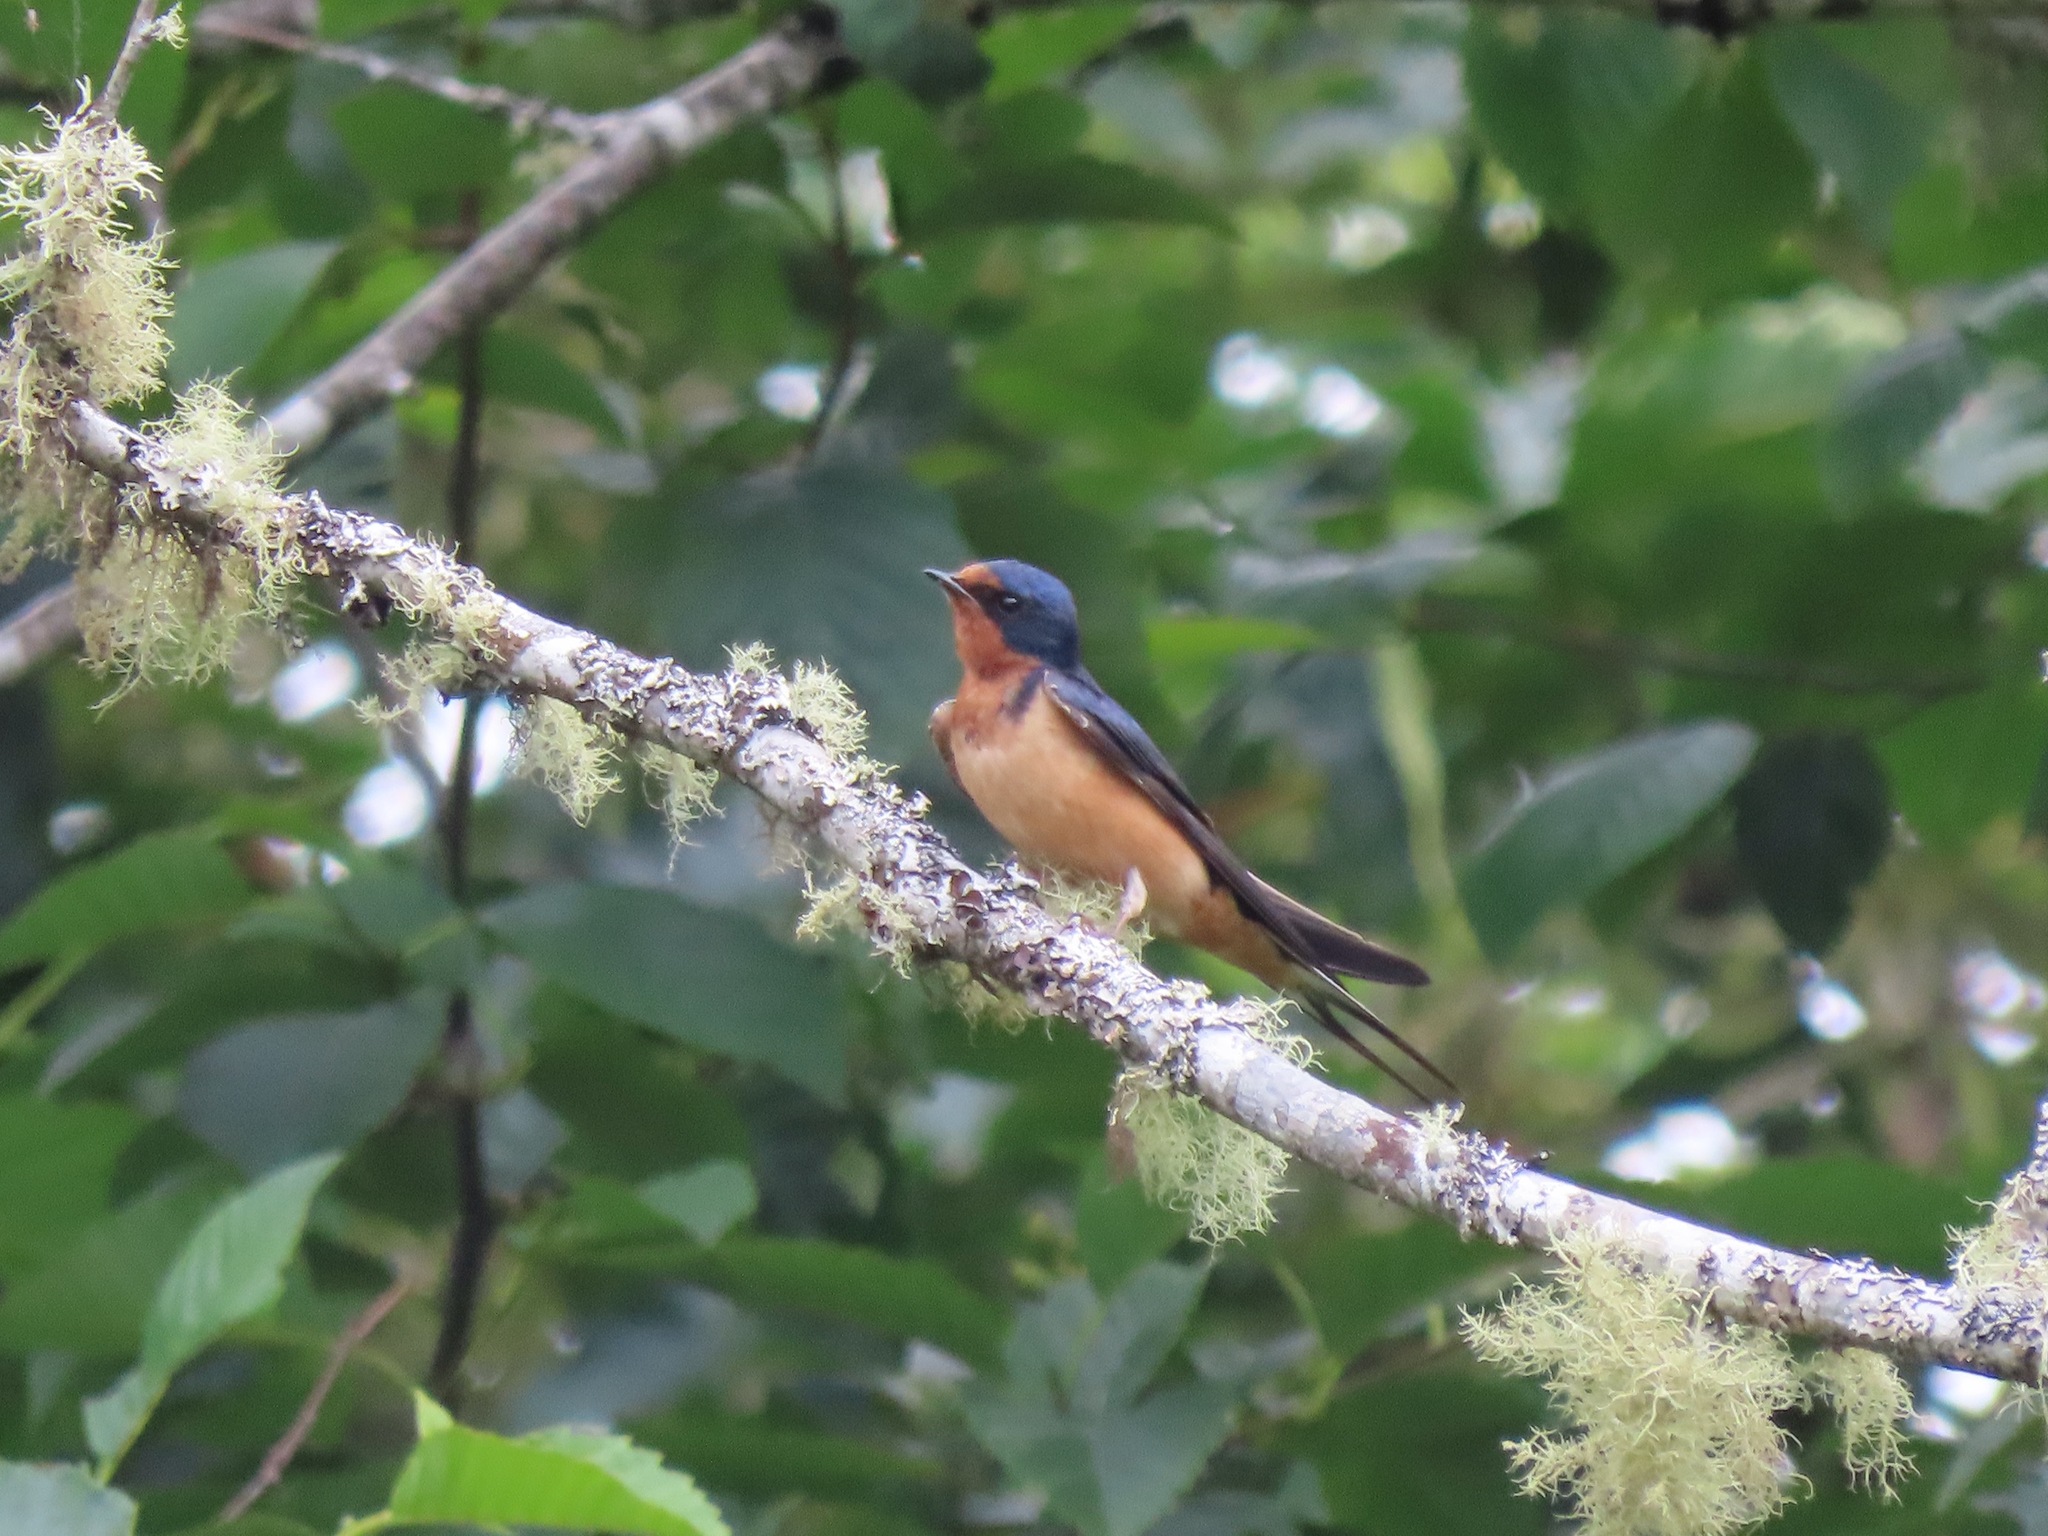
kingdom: Animalia
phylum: Chordata
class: Aves
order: Passeriformes
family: Hirundinidae
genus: Hirundo
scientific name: Hirundo rustica
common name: Barn swallow
